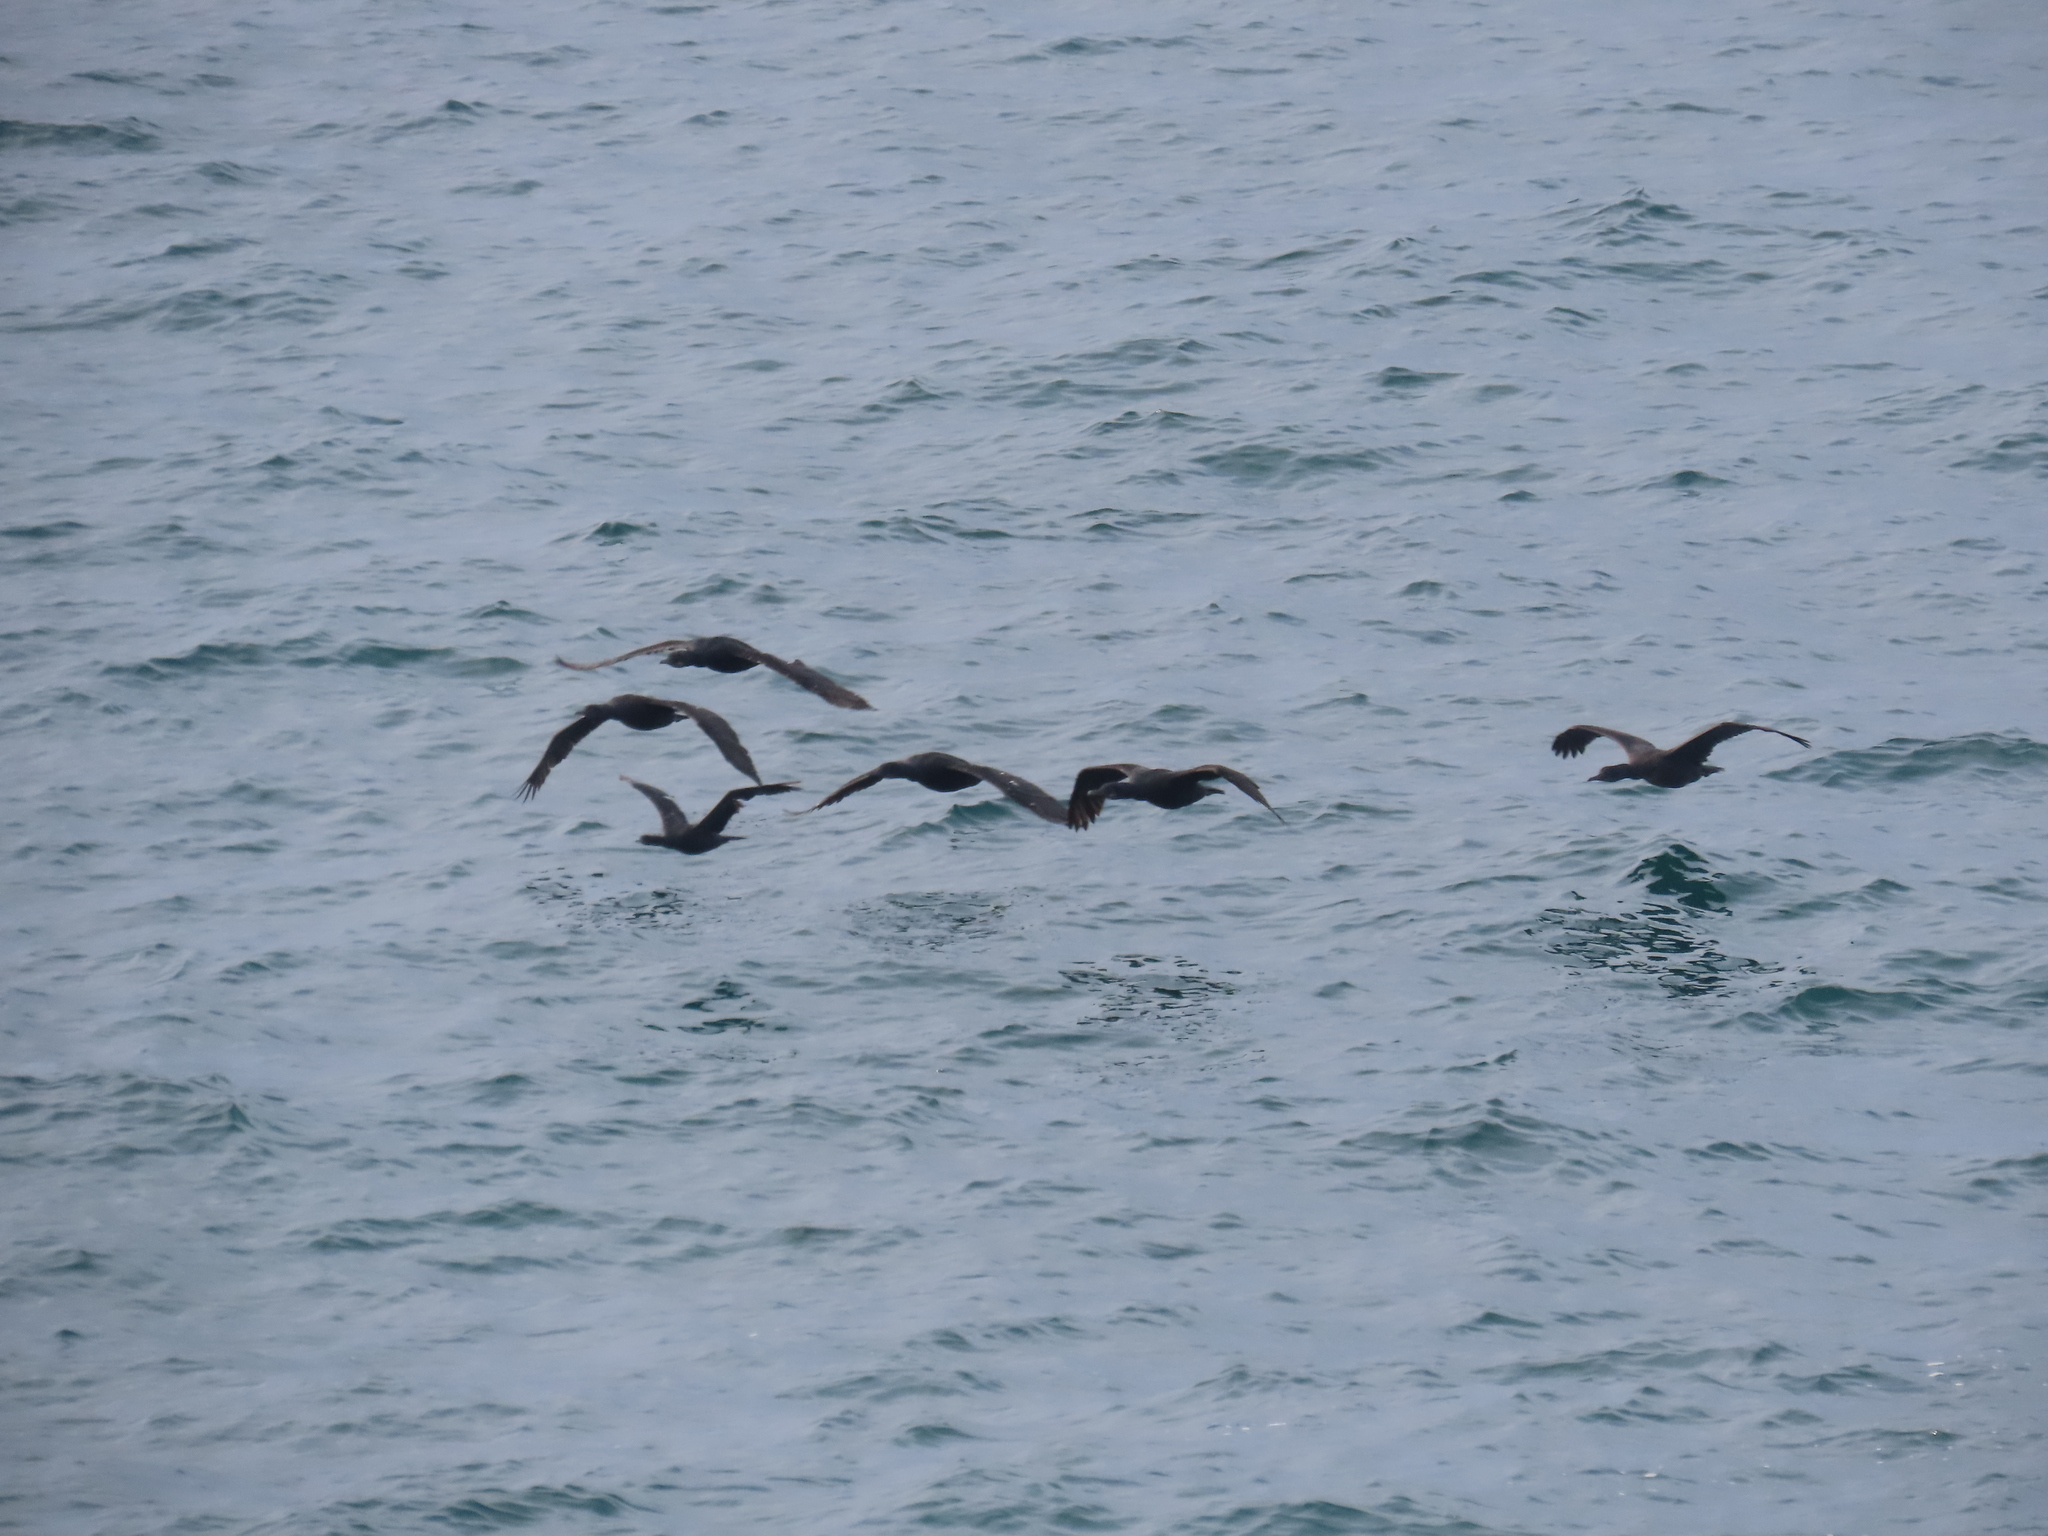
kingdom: Animalia
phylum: Chordata
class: Aves
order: Suliformes
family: Phalacrocoracidae
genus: Urile
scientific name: Urile penicillatus
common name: Brandt's cormorant
